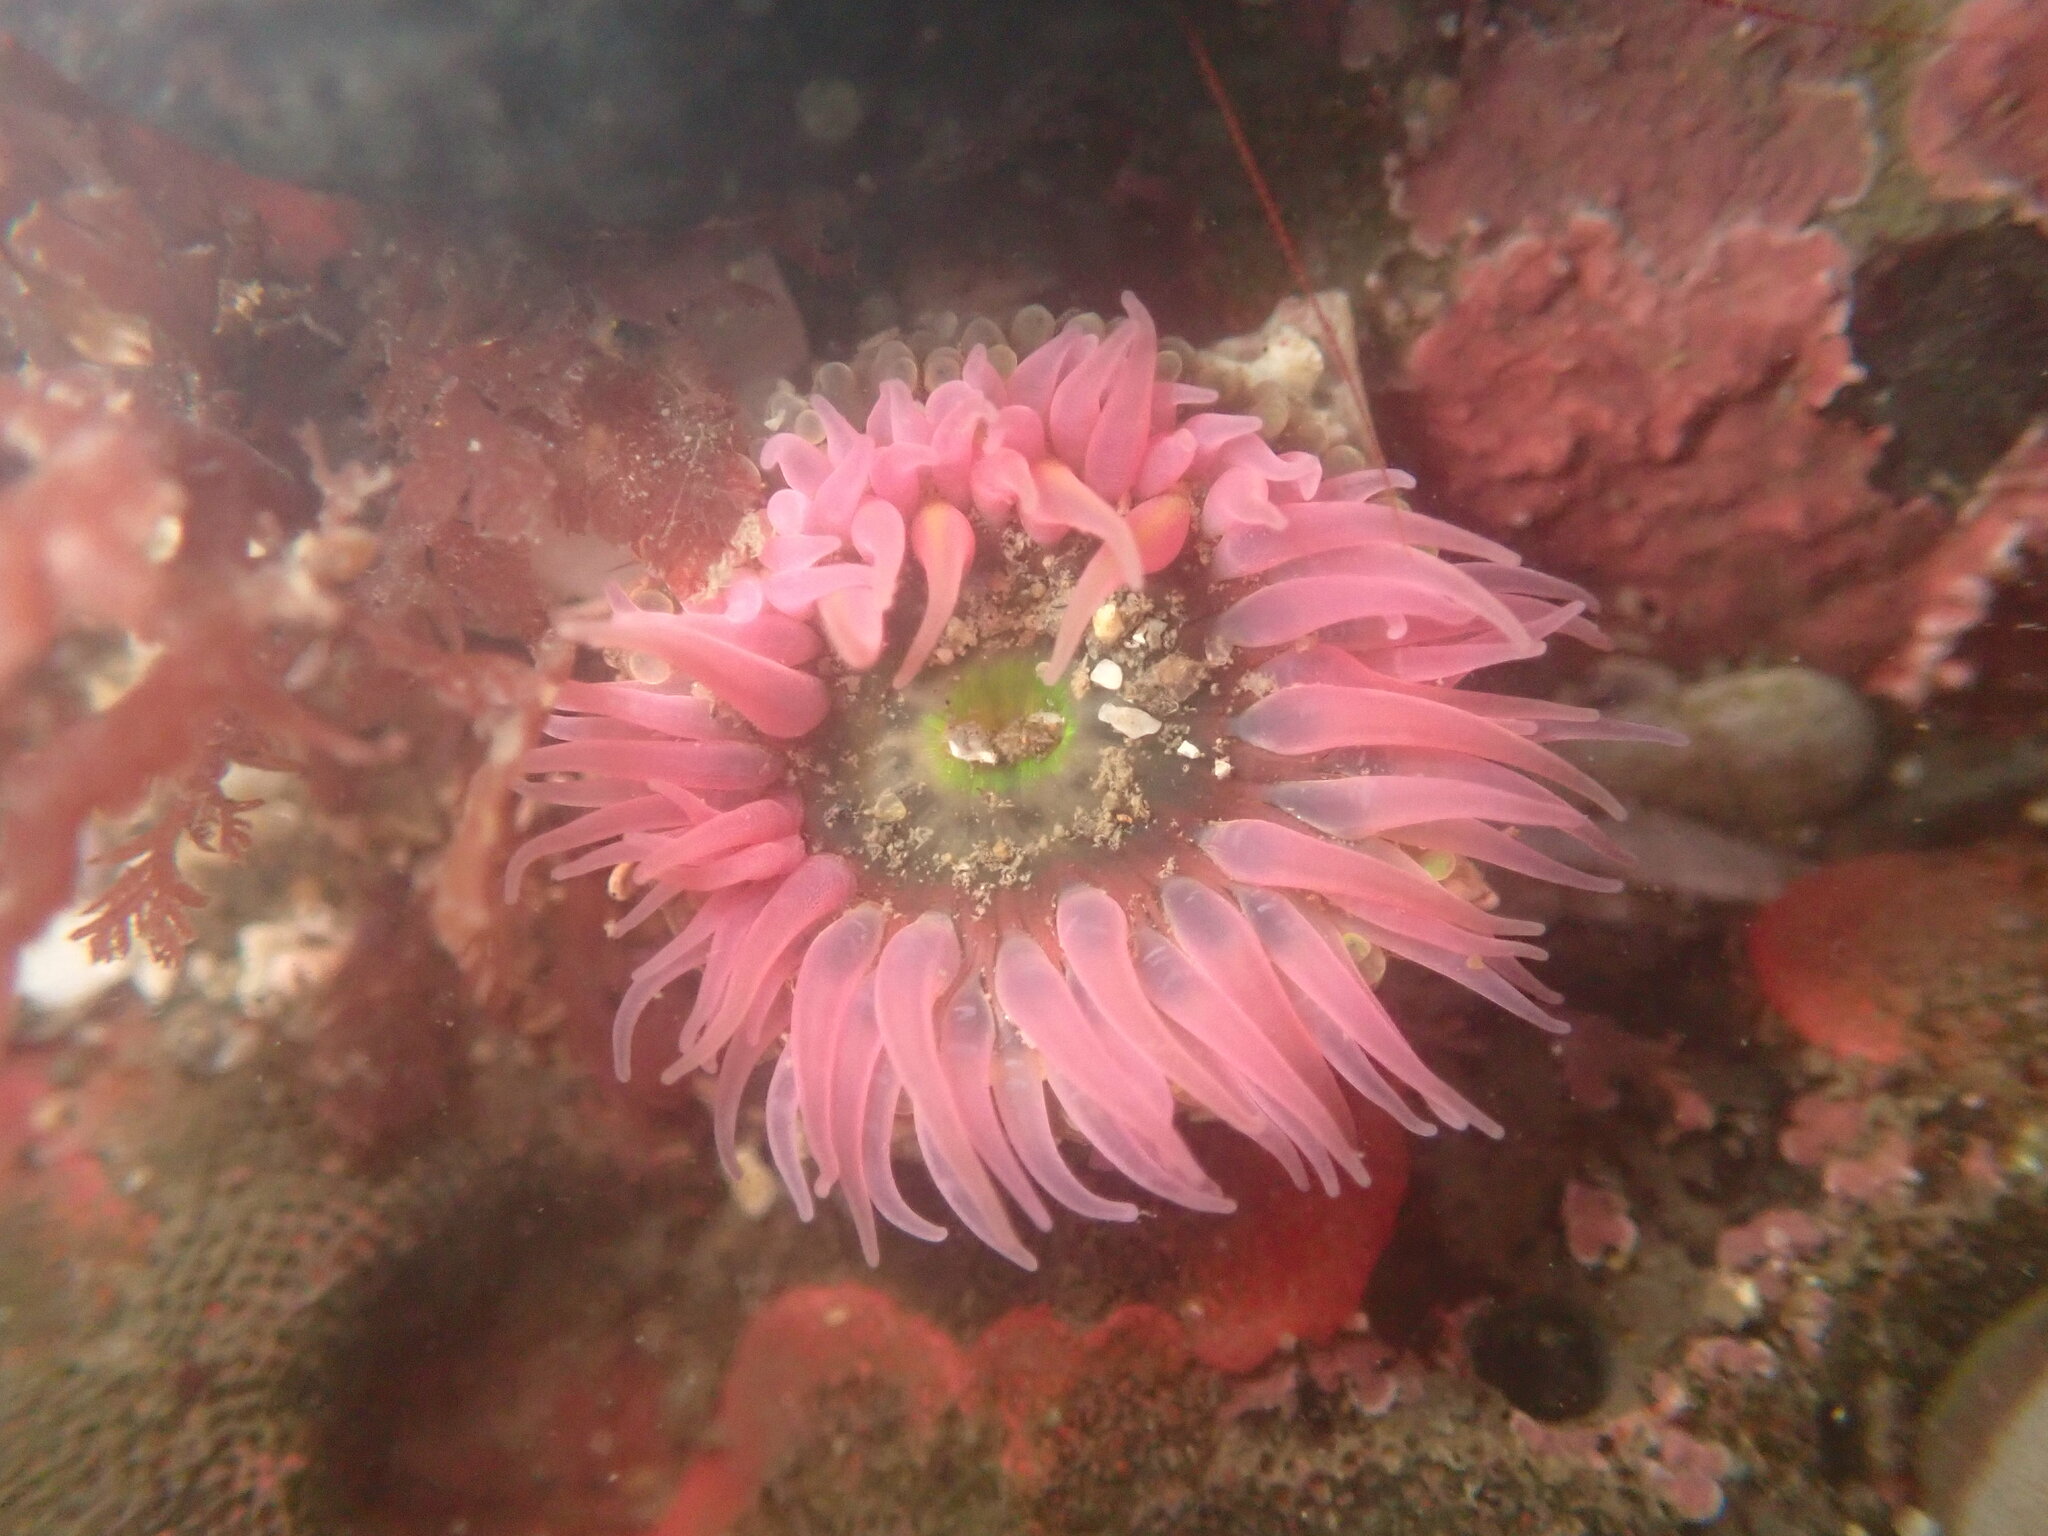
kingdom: Animalia
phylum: Cnidaria
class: Anthozoa
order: Actiniaria
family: Actiniidae
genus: Anthopleura
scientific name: Anthopleura artemisia
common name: Buried sea anemone
